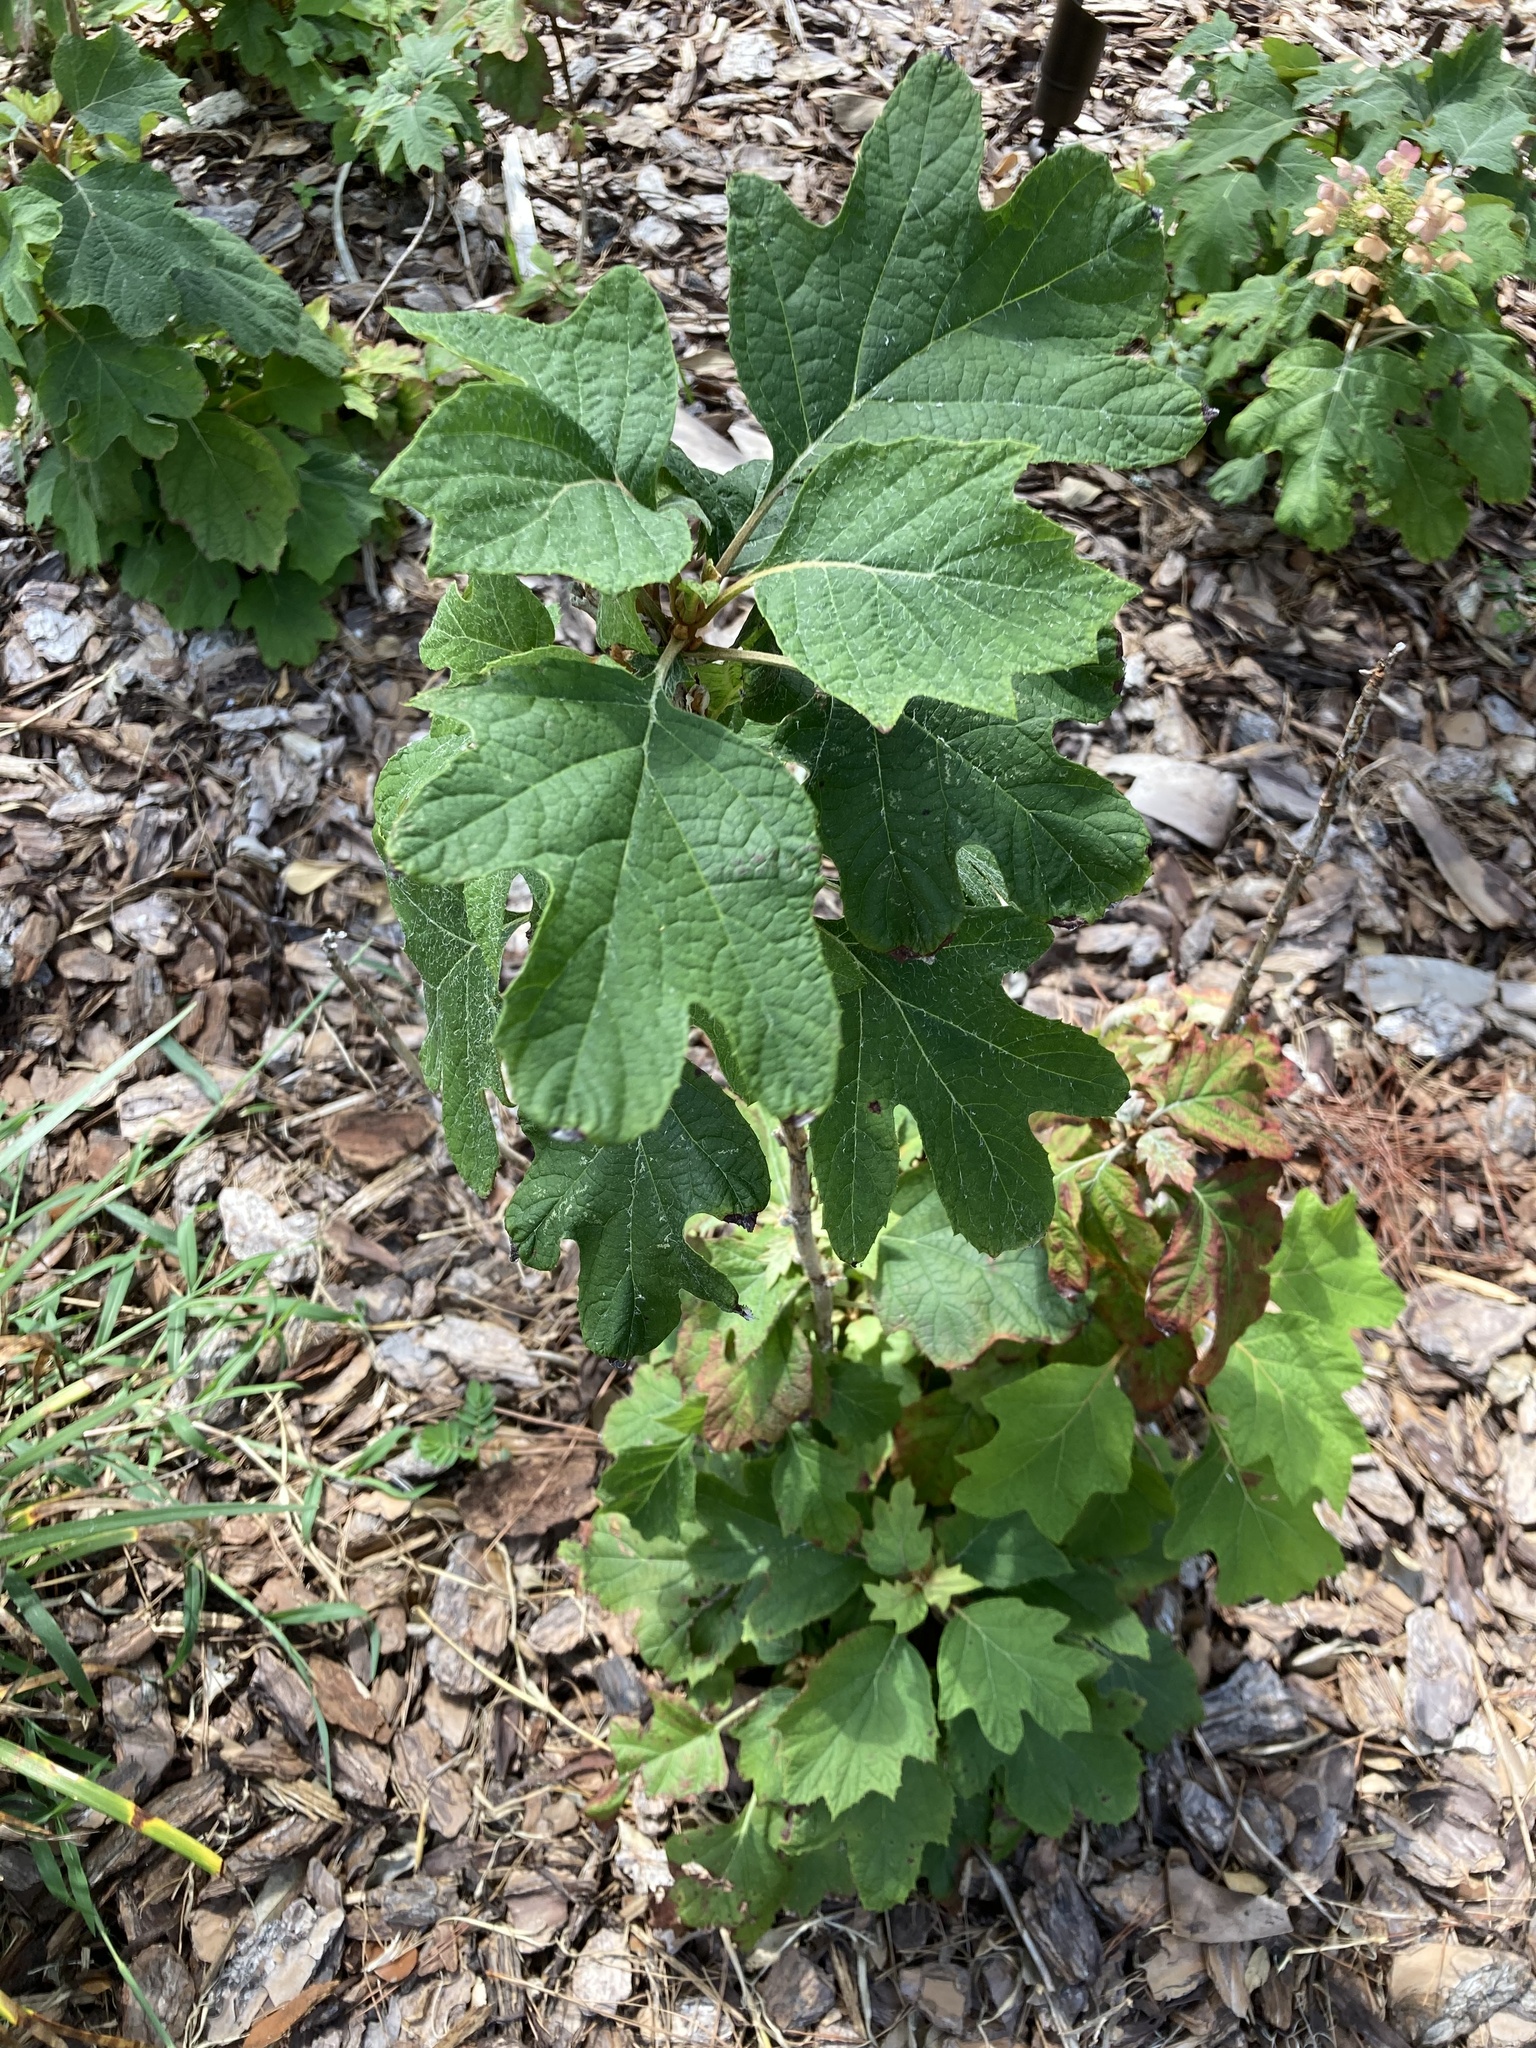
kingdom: Plantae
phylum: Tracheophyta
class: Magnoliopsida
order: Cornales
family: Hydrangeaceae
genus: Hydrangea
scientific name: Hydrangea quercifolia
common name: Oak-leaf hydrangea
